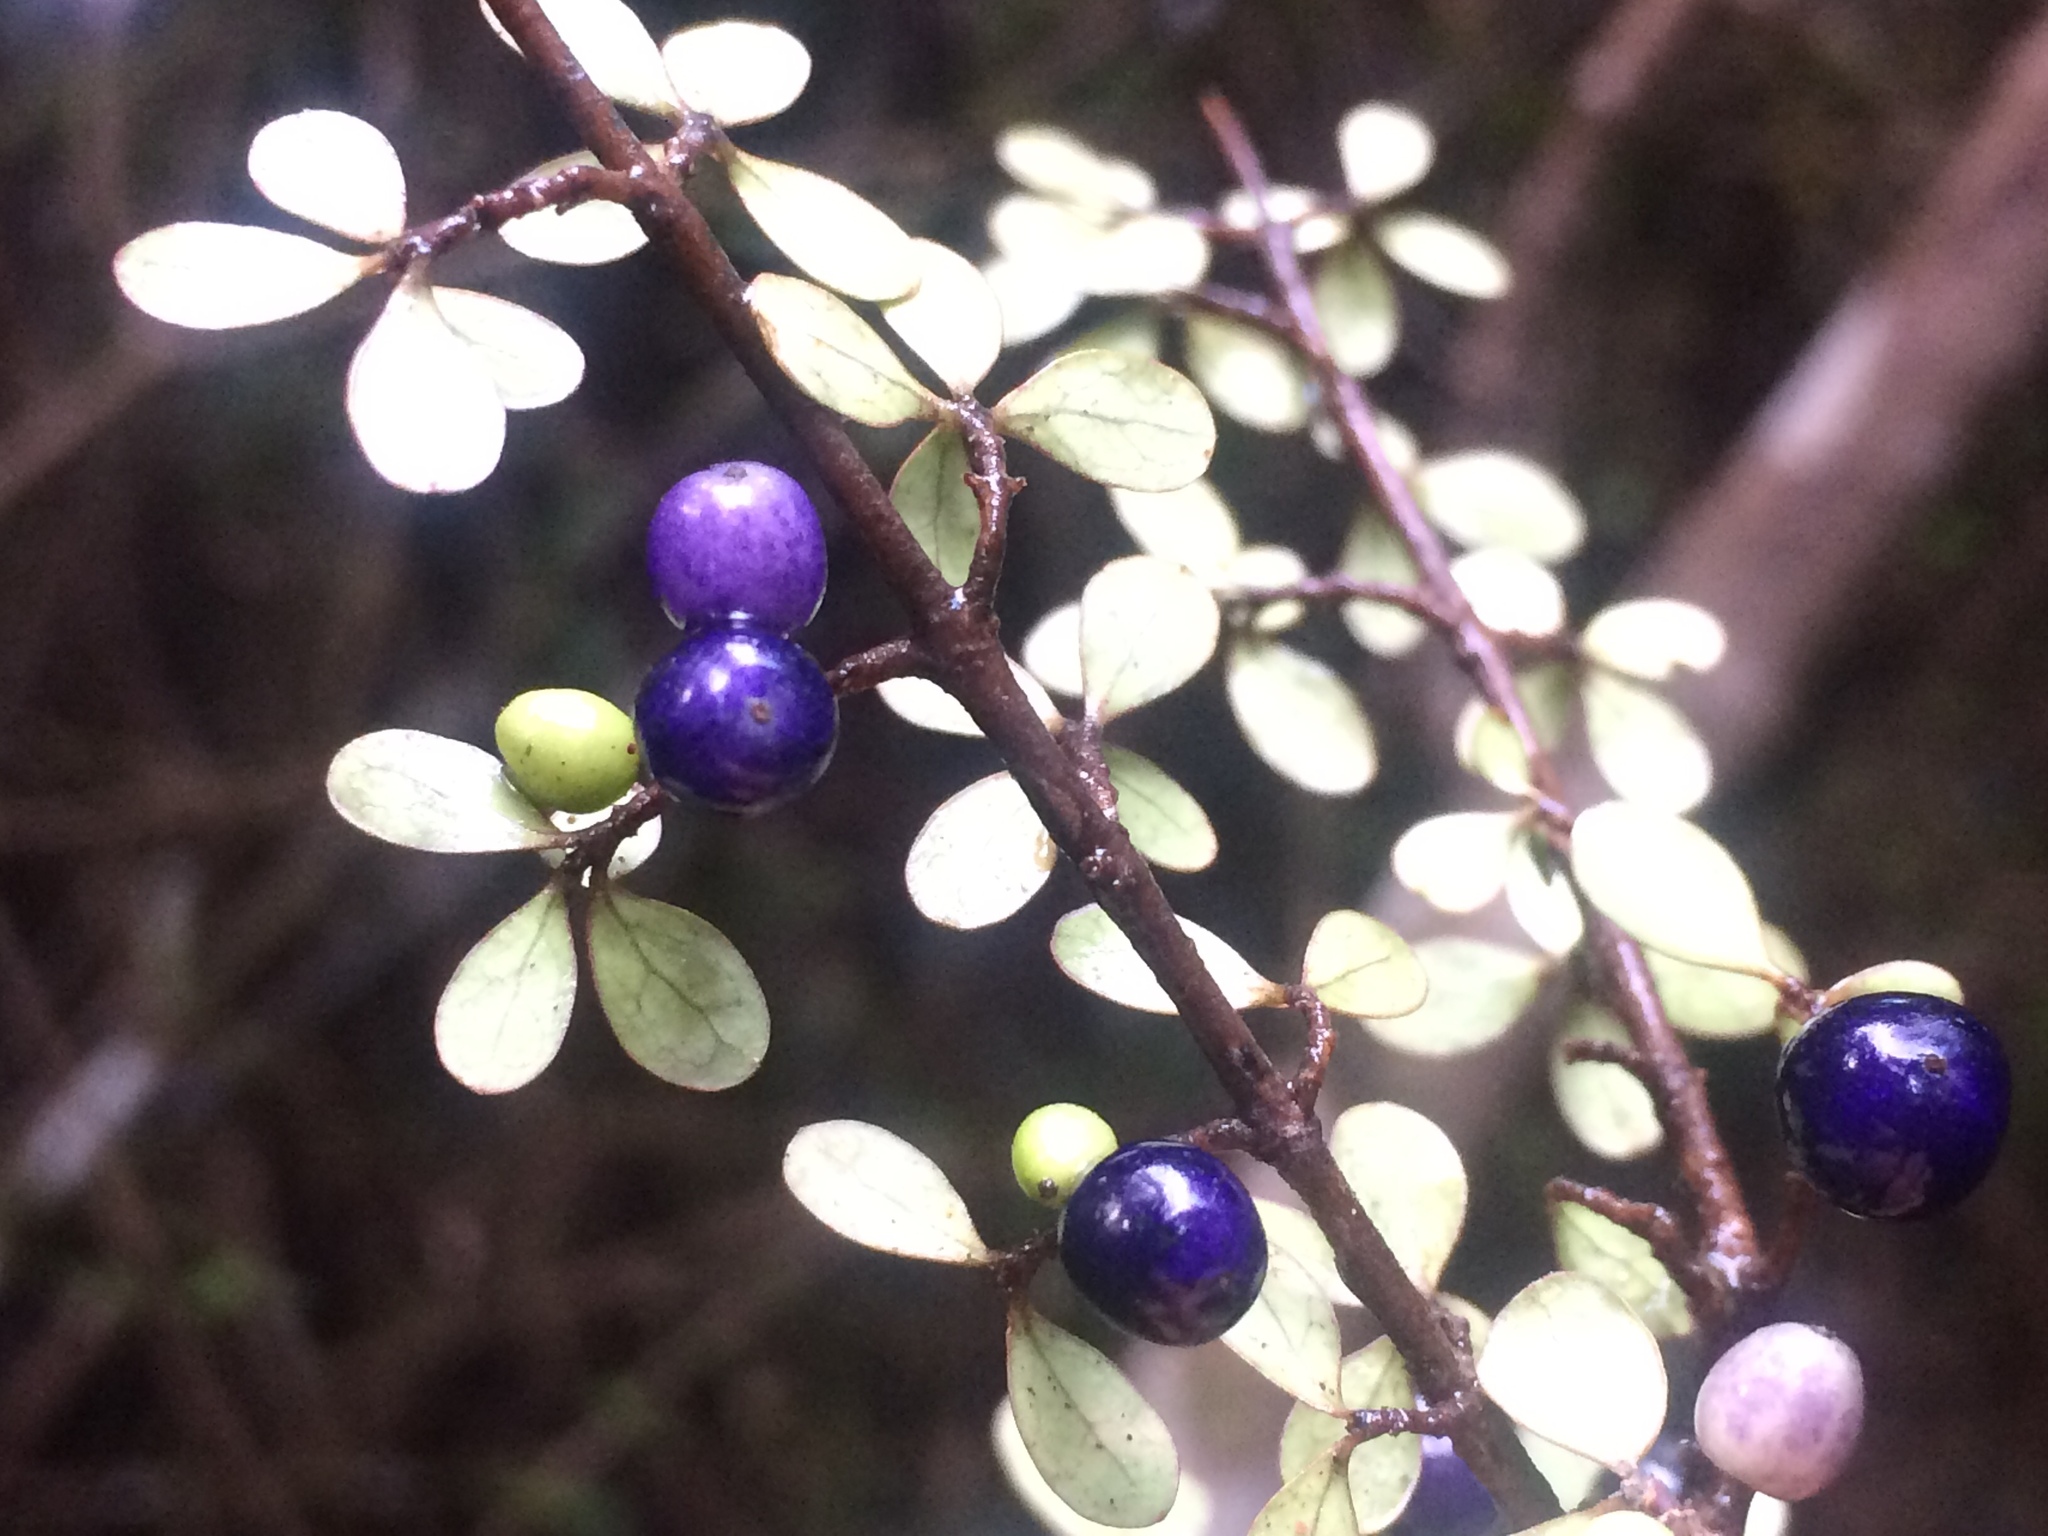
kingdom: Plantae
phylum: Tracheophyta
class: Magnoliopsida
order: Gentianales
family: Rubiaceae
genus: Coprosma
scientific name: Coprosma pedicellata
